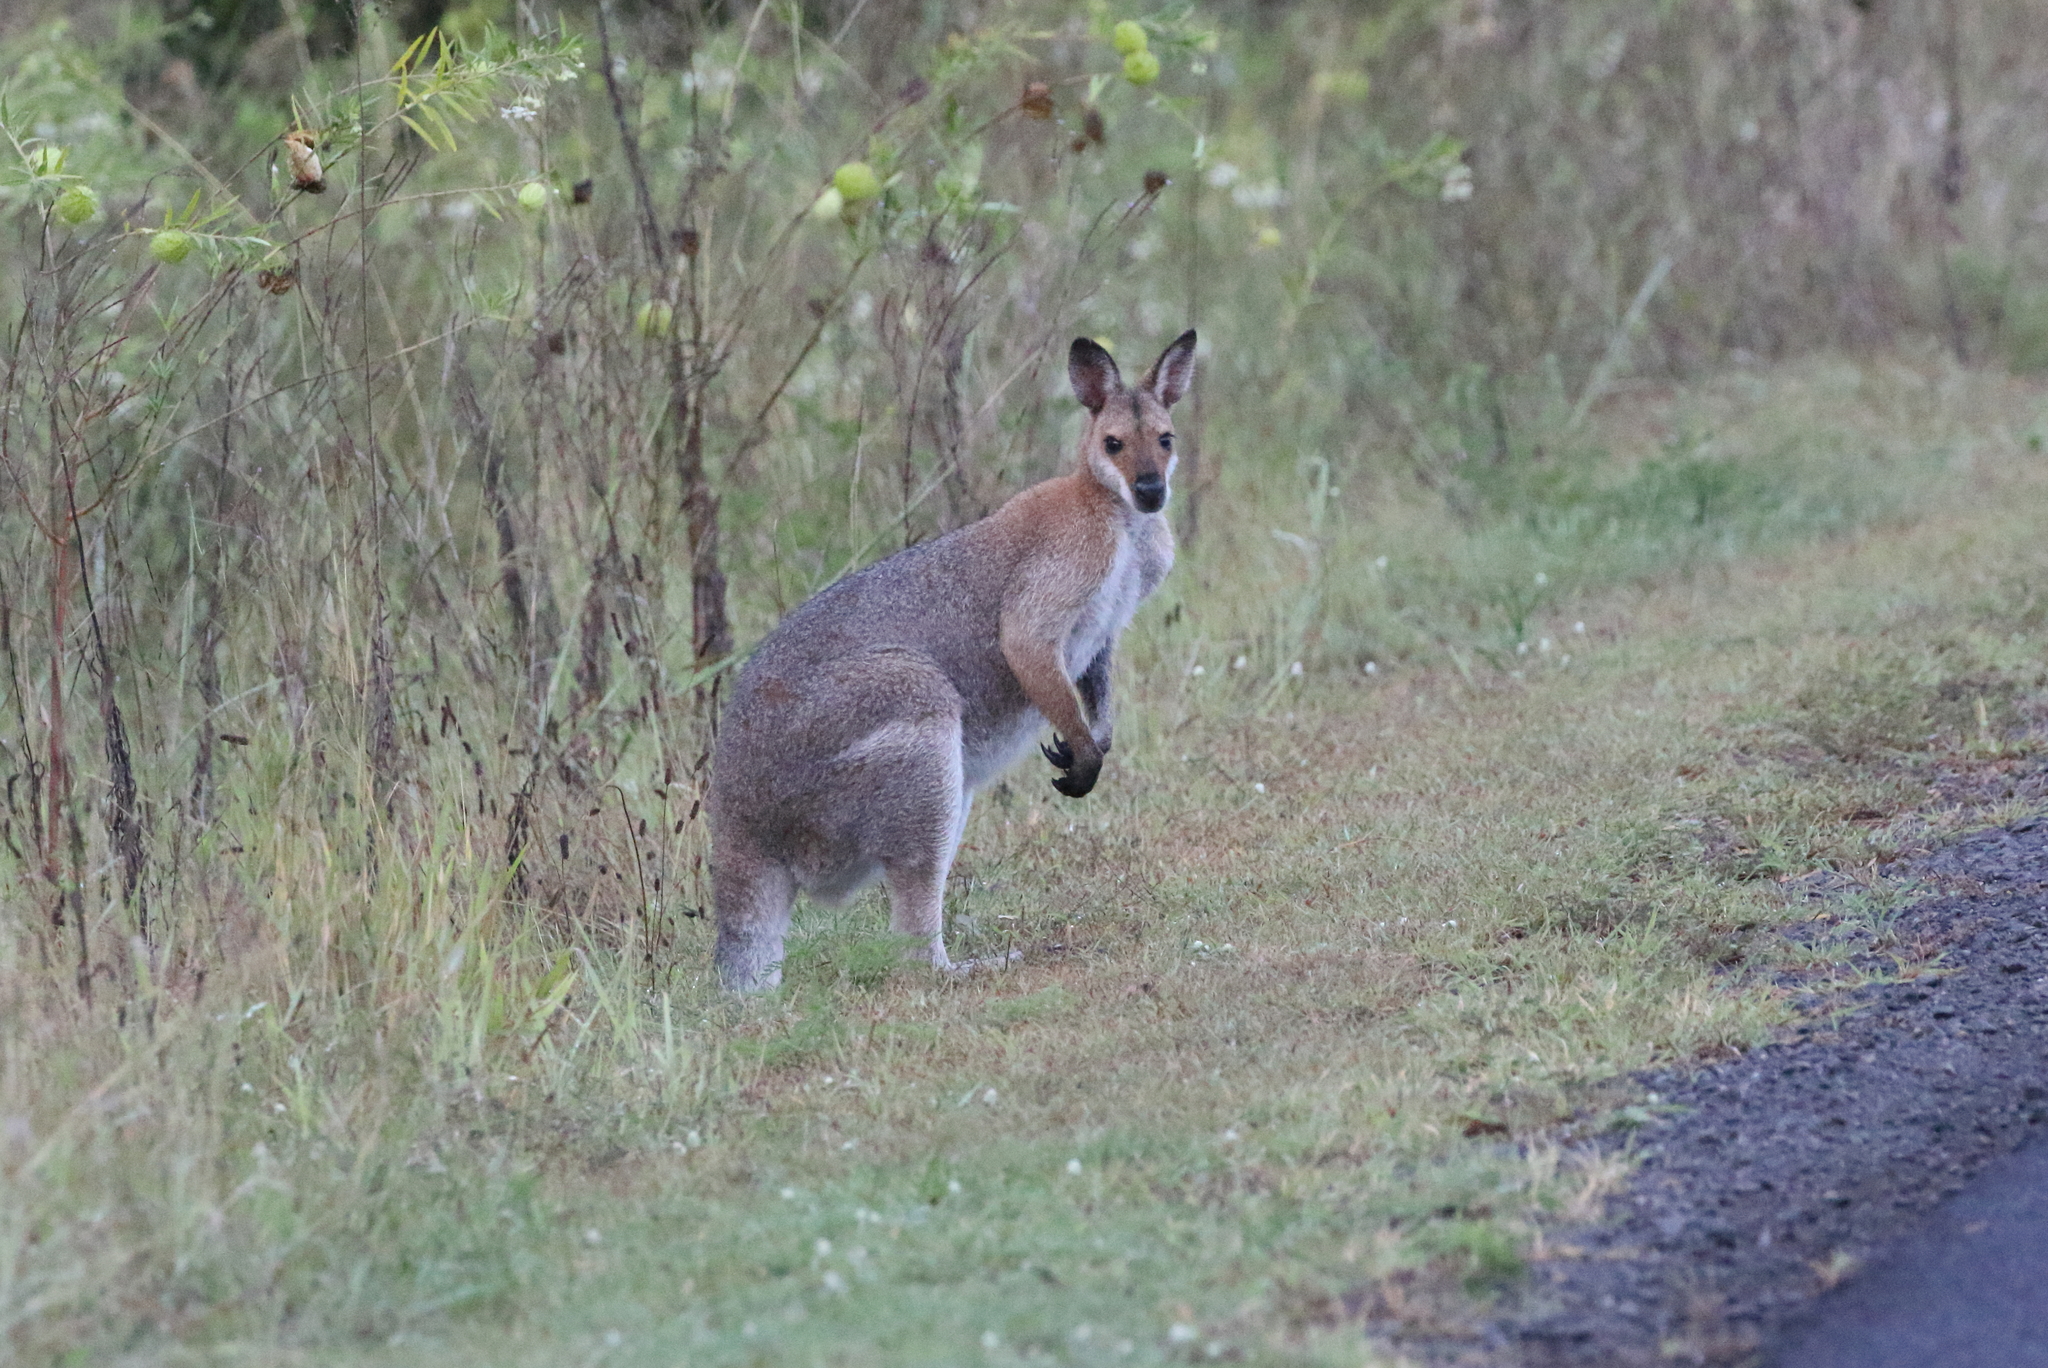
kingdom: Animalia
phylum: Chordata
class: Mammalia
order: Diprotodontia
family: Macropodidae
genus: Notamacropus
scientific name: Notamacropus rufogriseus
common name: Red-necked wallaby
